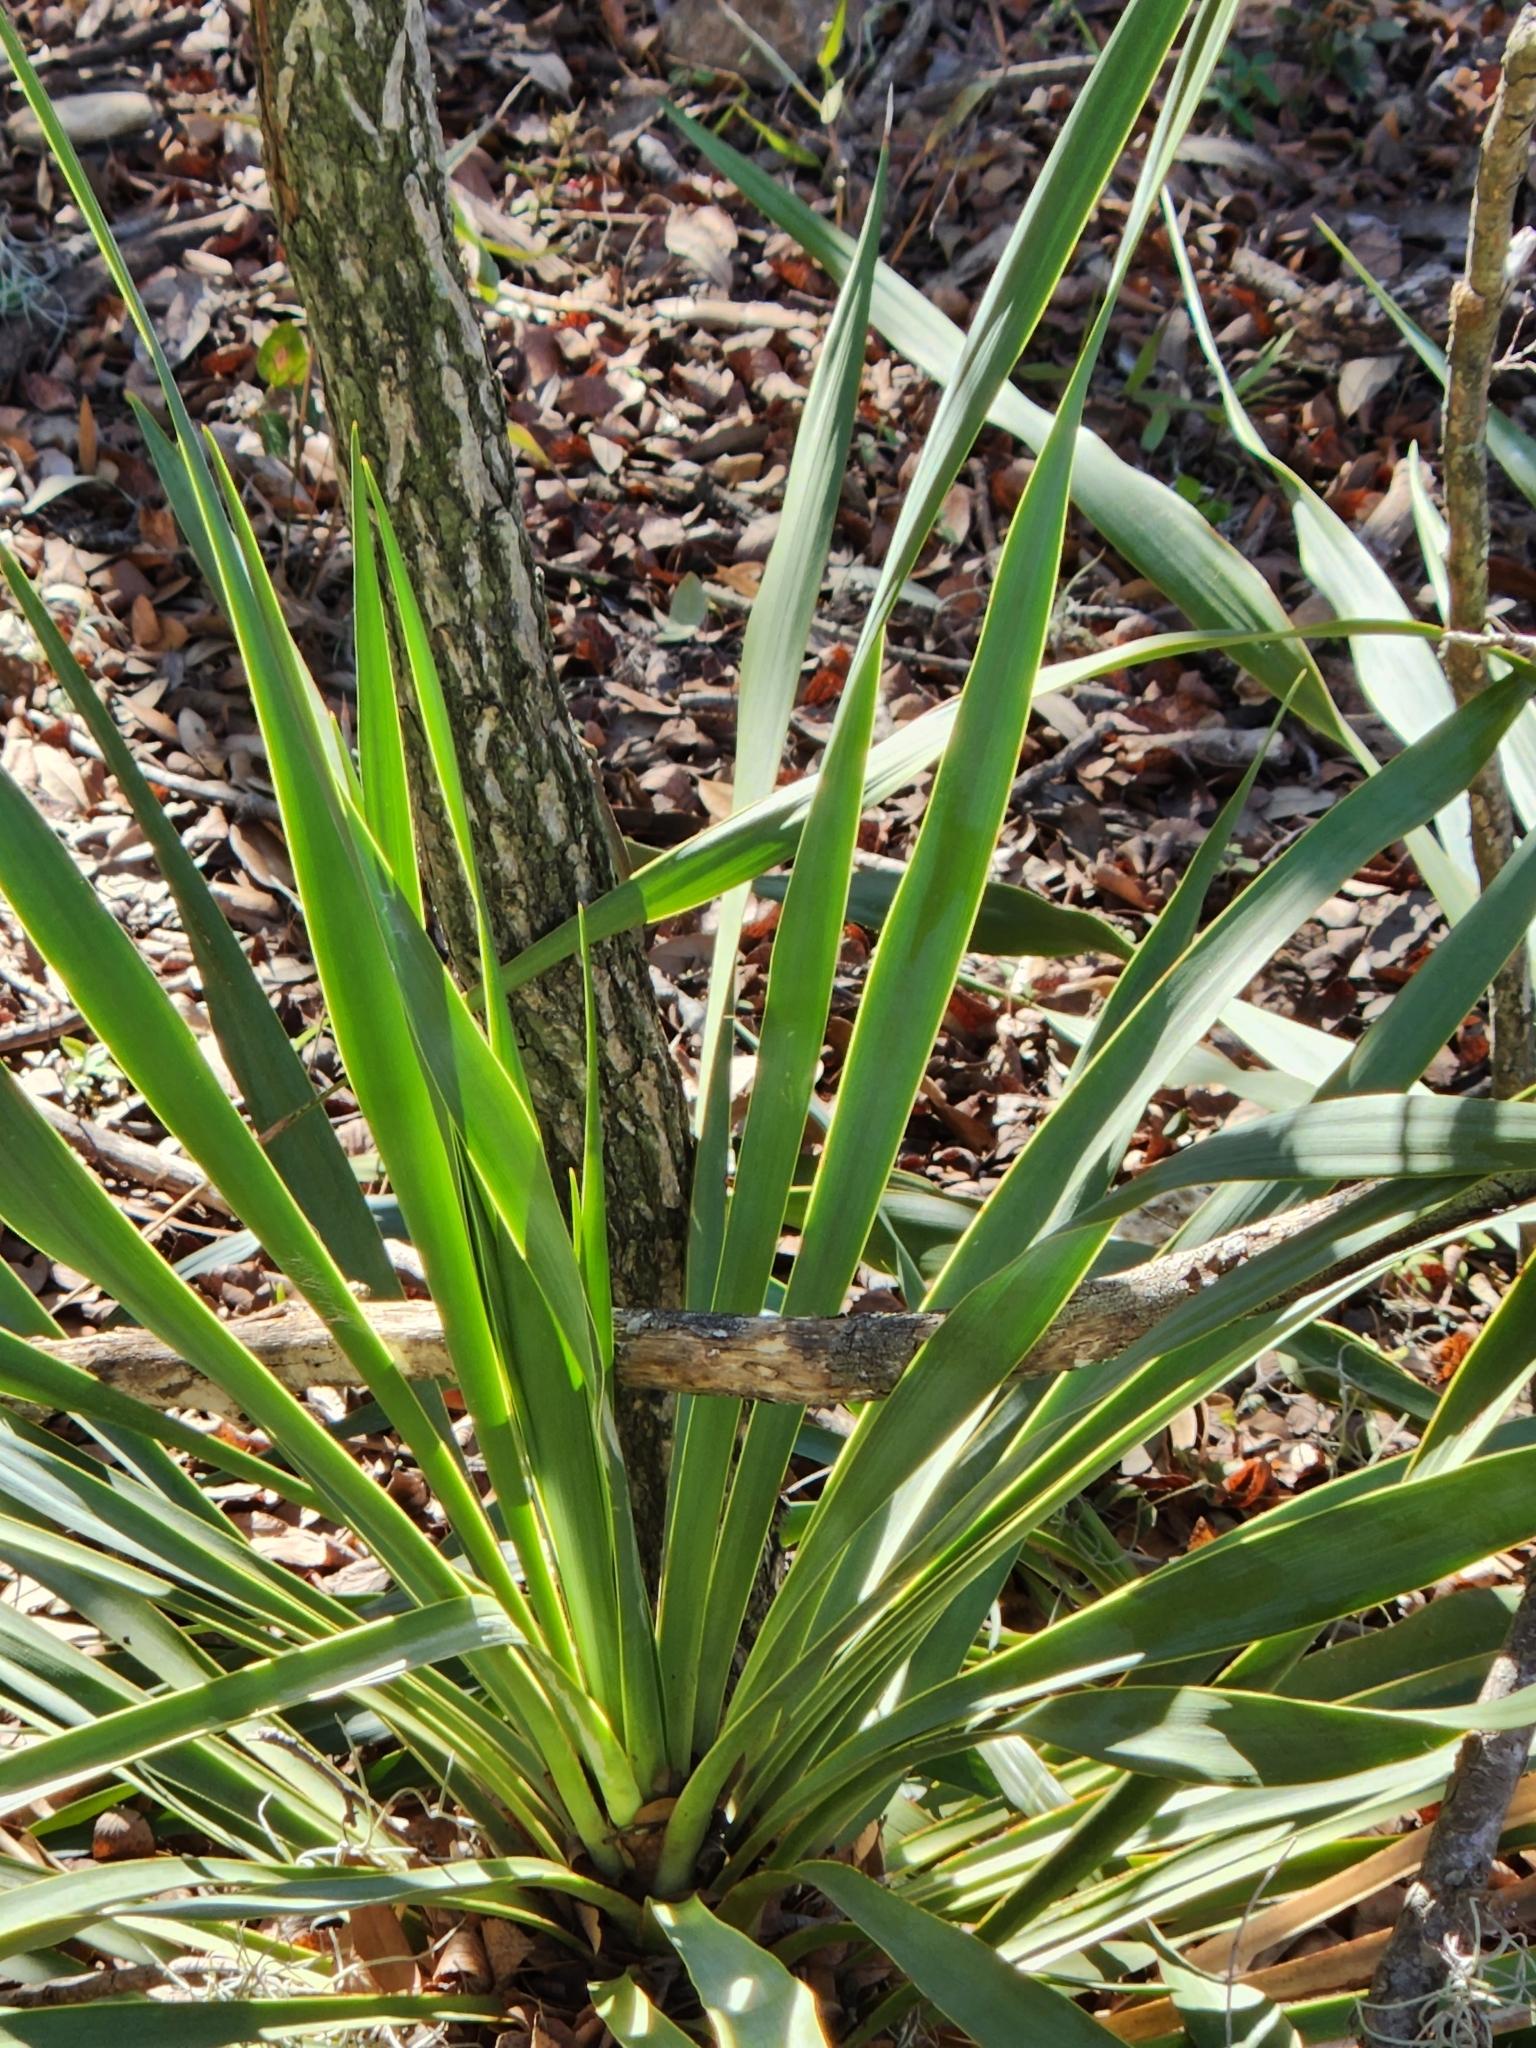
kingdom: Plantae
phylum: Tracheophyta
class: Liliopsida
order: Asparagales
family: Asparagaceae
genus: Yucca
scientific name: Yucca rupicola
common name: Twisted-leaf spanish-dagger
